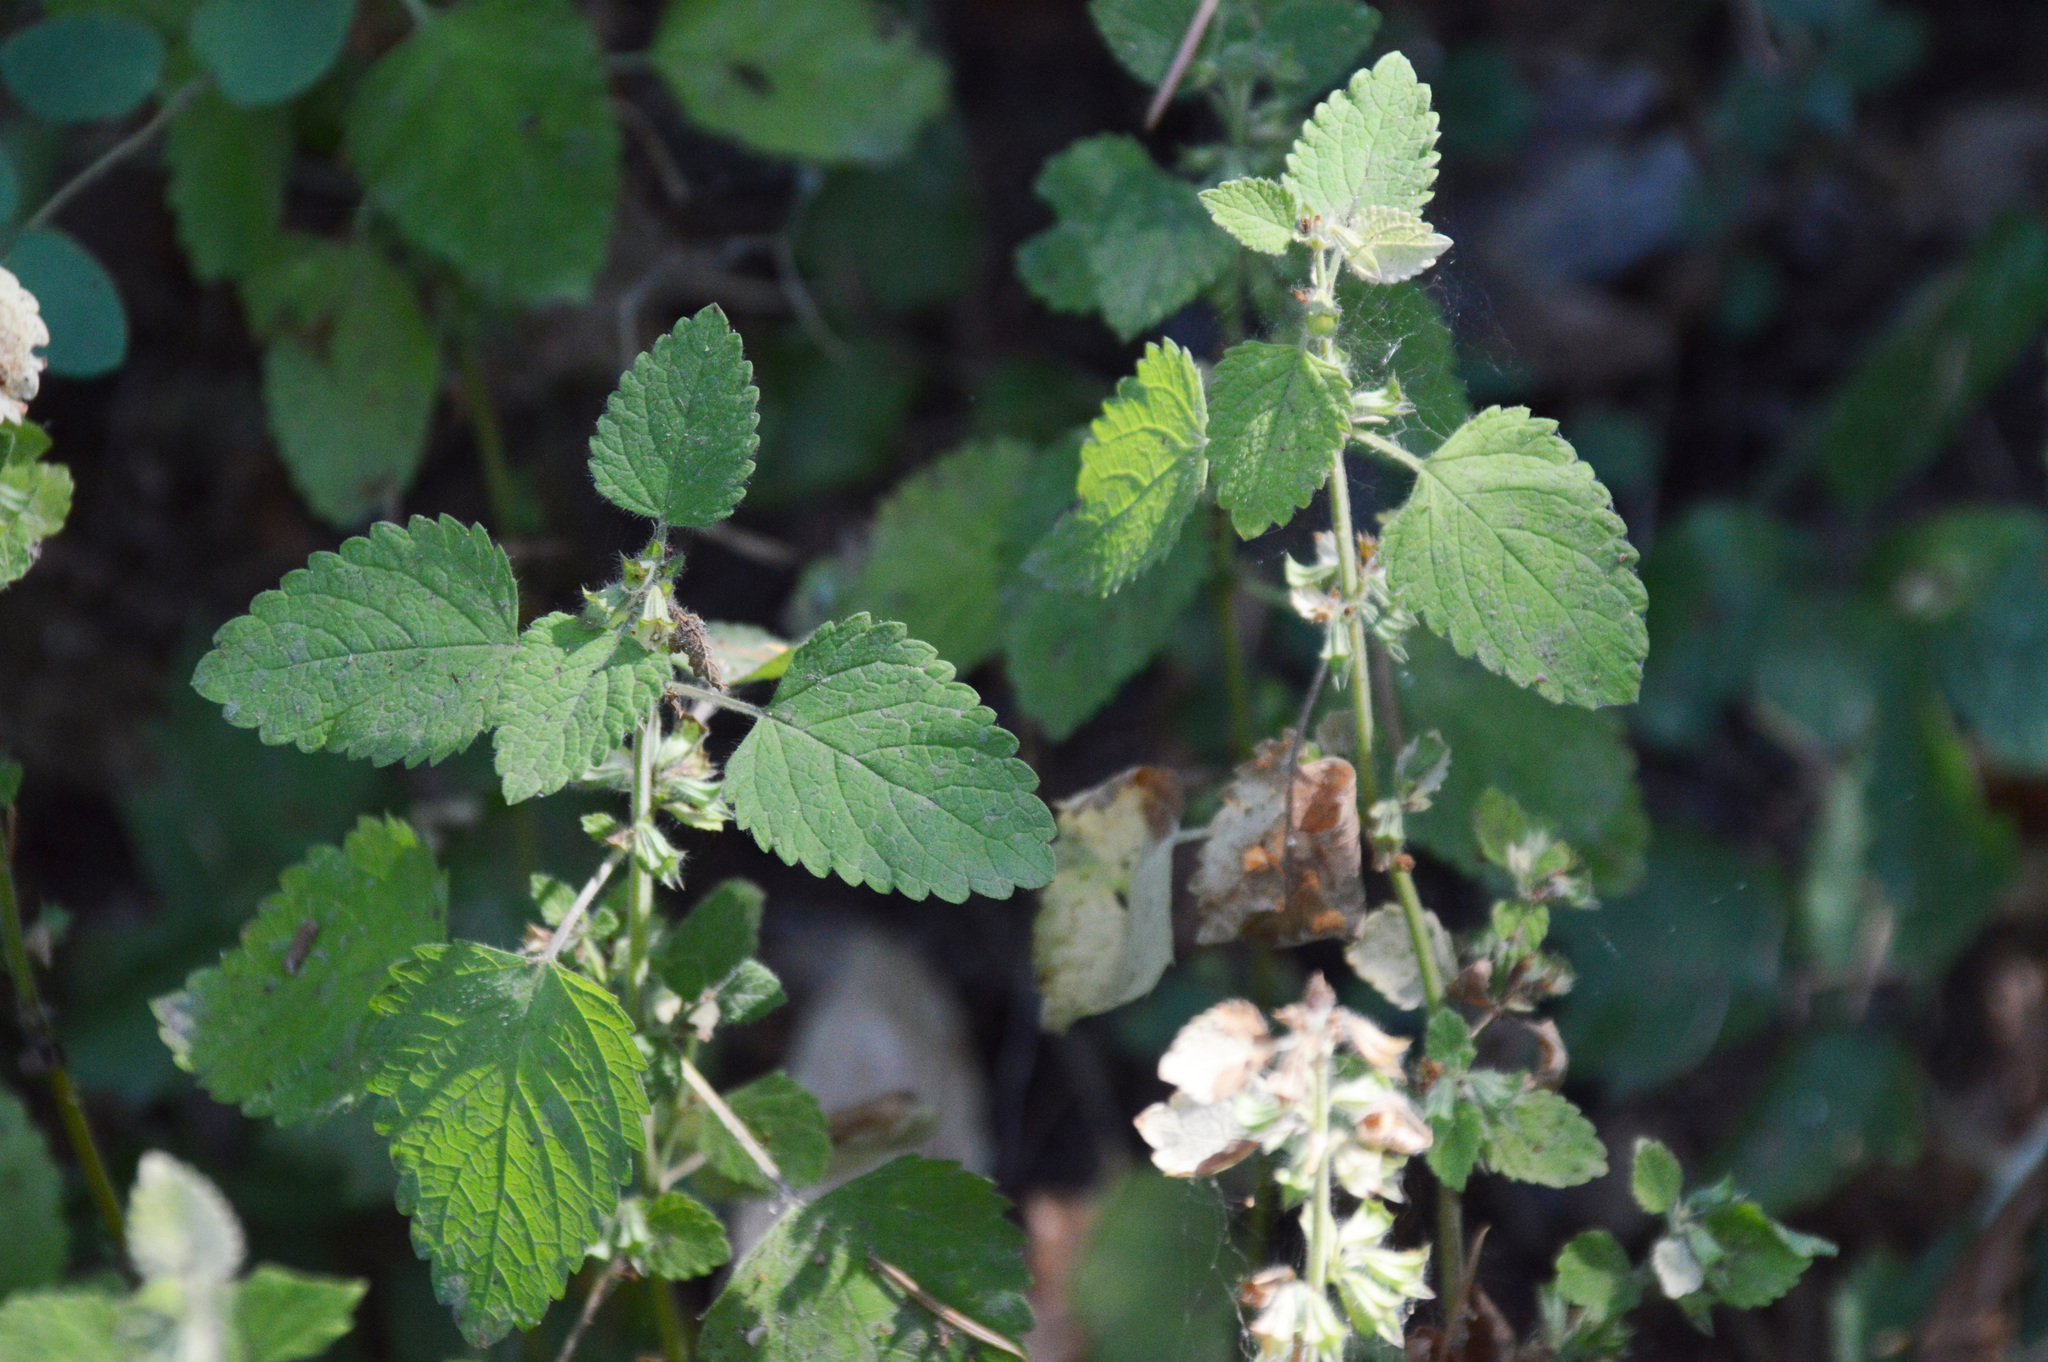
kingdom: Plantae
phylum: Tracheophyta
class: Magnoliopsida
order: Lamiales
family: Lamiaceae
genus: Melissa
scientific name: Melissa officinalis
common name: Balm
